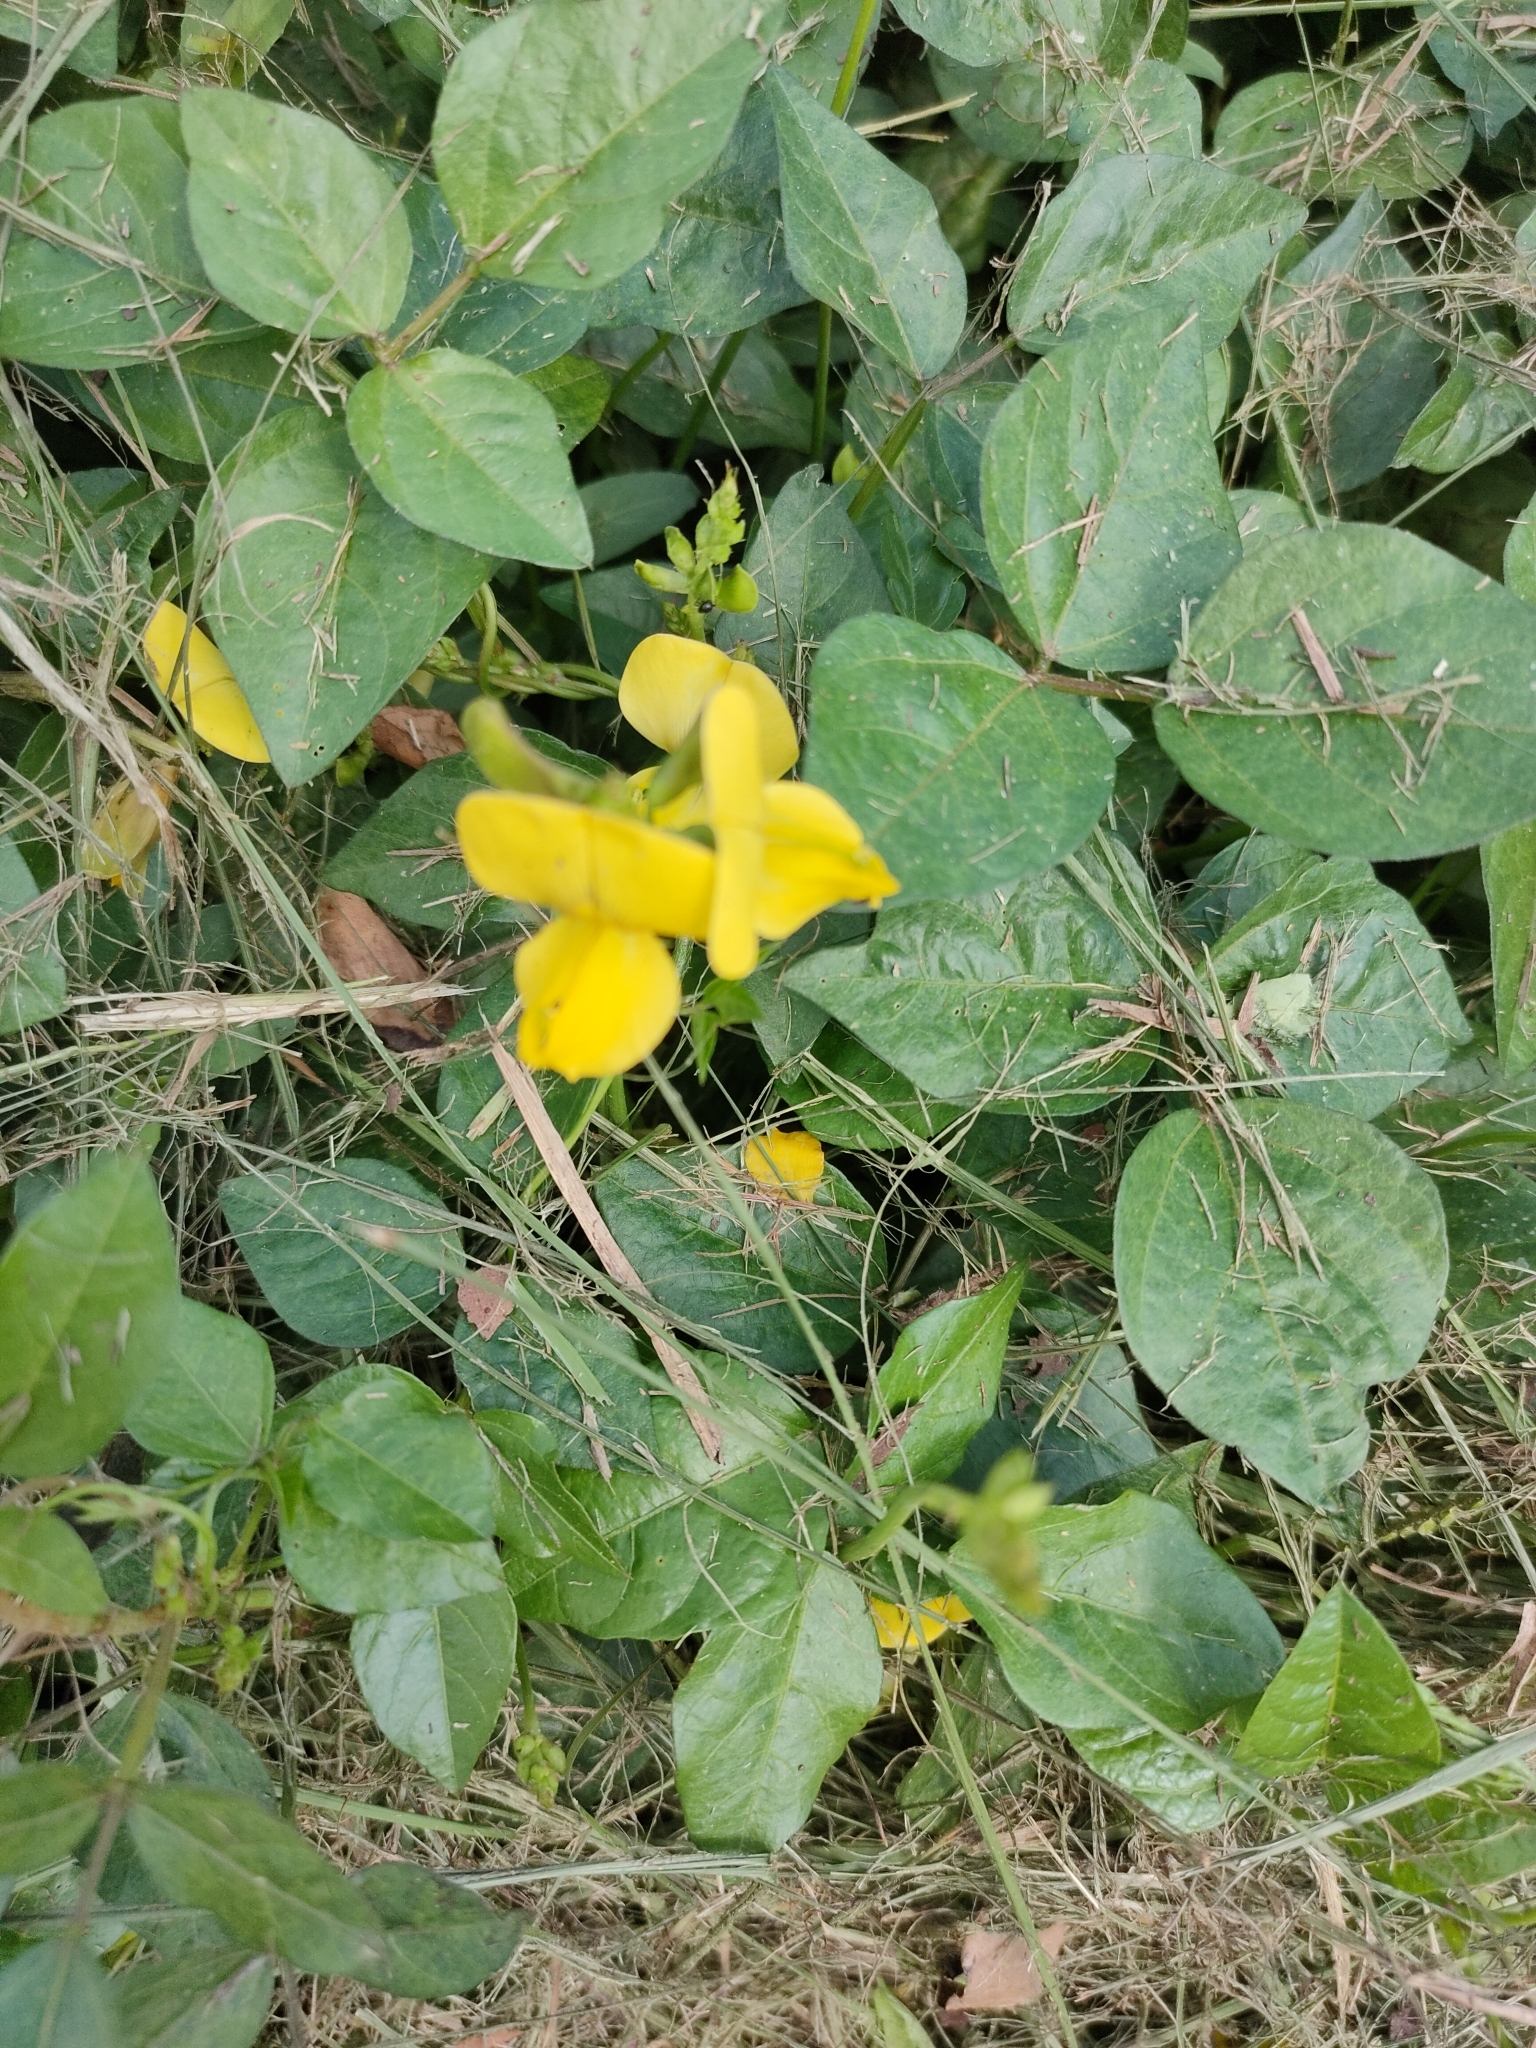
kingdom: Plantae
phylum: Tracheophyta
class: Magnoliopsida
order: Fabales
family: Fabaceae
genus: Vigna
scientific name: Vigna luteola
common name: Hairypod cowpea
